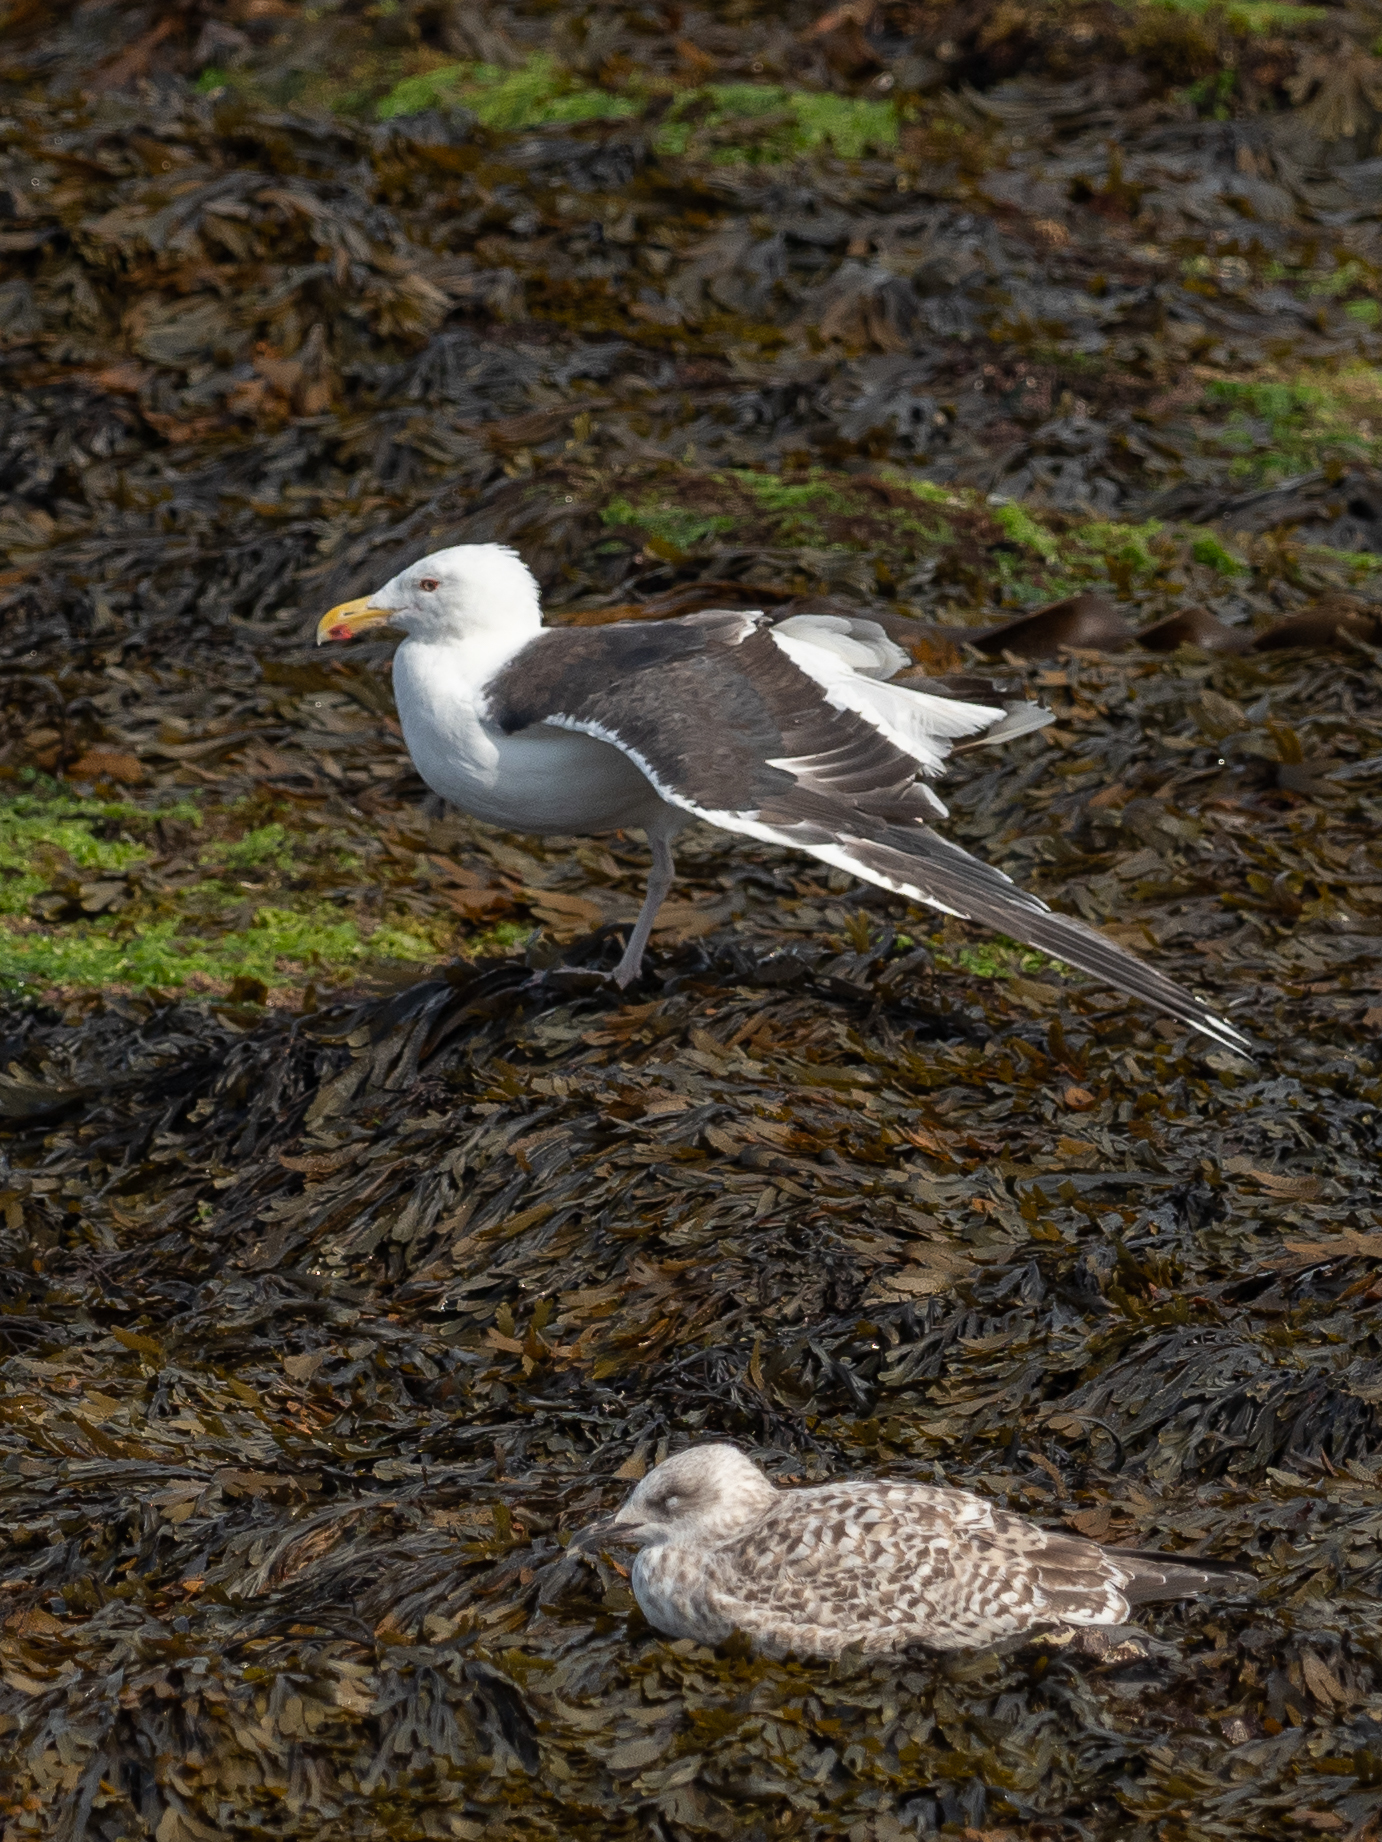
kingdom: Animalia
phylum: Chordata
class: Aves
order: Charadriiformes
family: Laridae
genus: Larus
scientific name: Larus marinus
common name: Great black-backed gull
